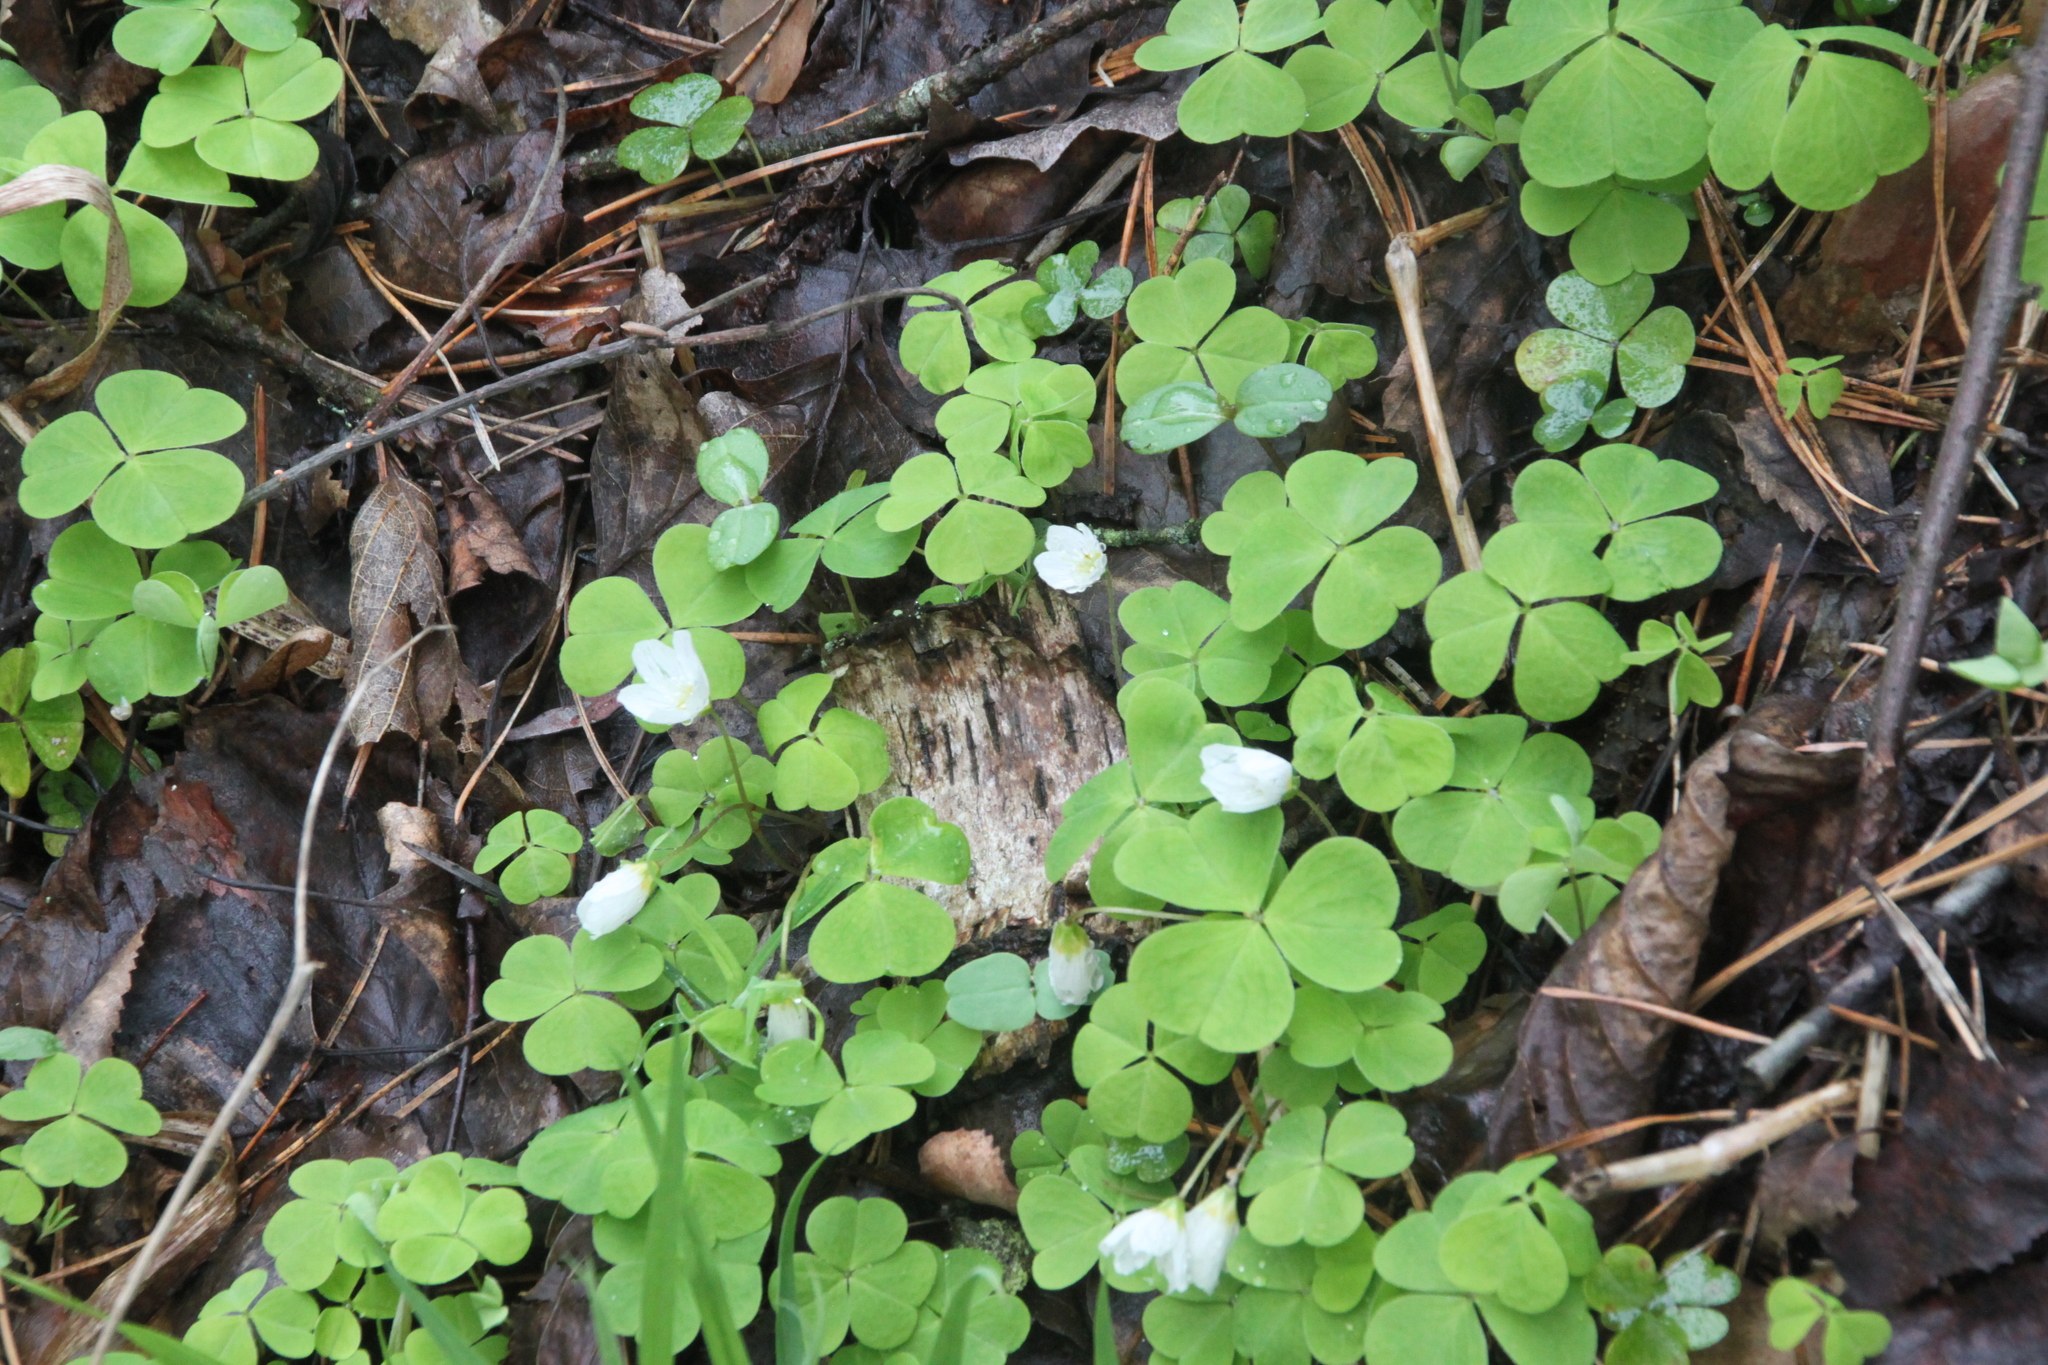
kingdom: Plantae
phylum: Tracheophyta
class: Magnoliopsida
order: Oxalidales
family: Oxalidaceae
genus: Oxalis
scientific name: Oxalis acetosella
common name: Wood-sorrel
